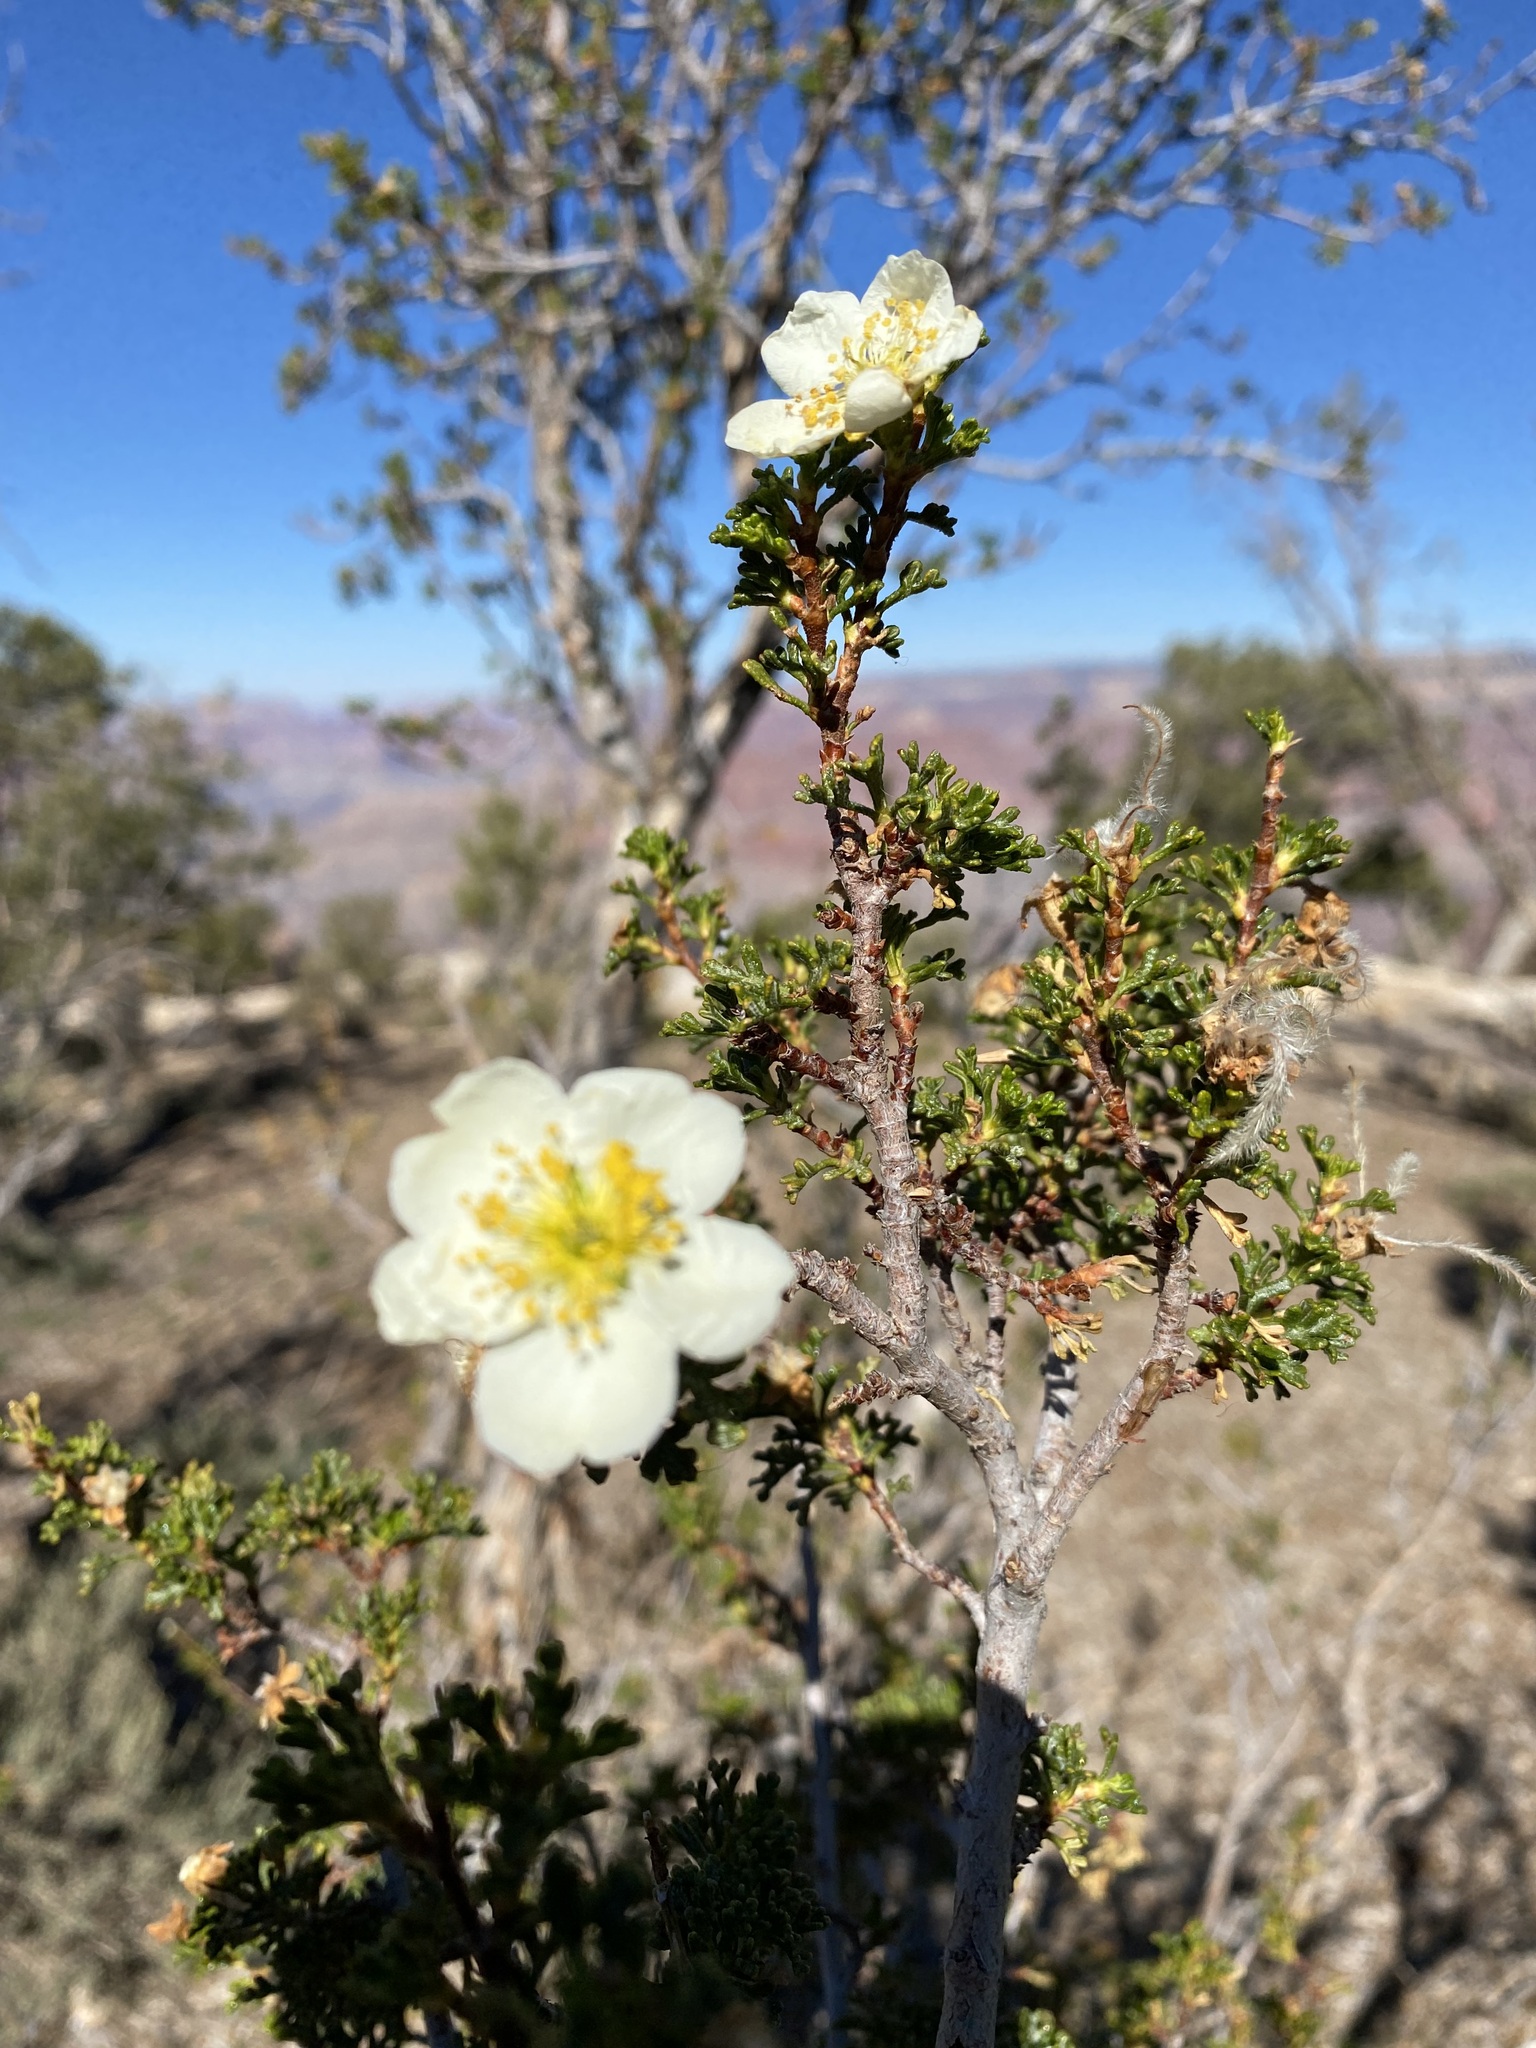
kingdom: Plantae
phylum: Tracheophyta
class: Magnoliopsida
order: Rosales
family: Rosaceae
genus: Purshia
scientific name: Purshia stansburiana
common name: Stansbury's cliffrose
